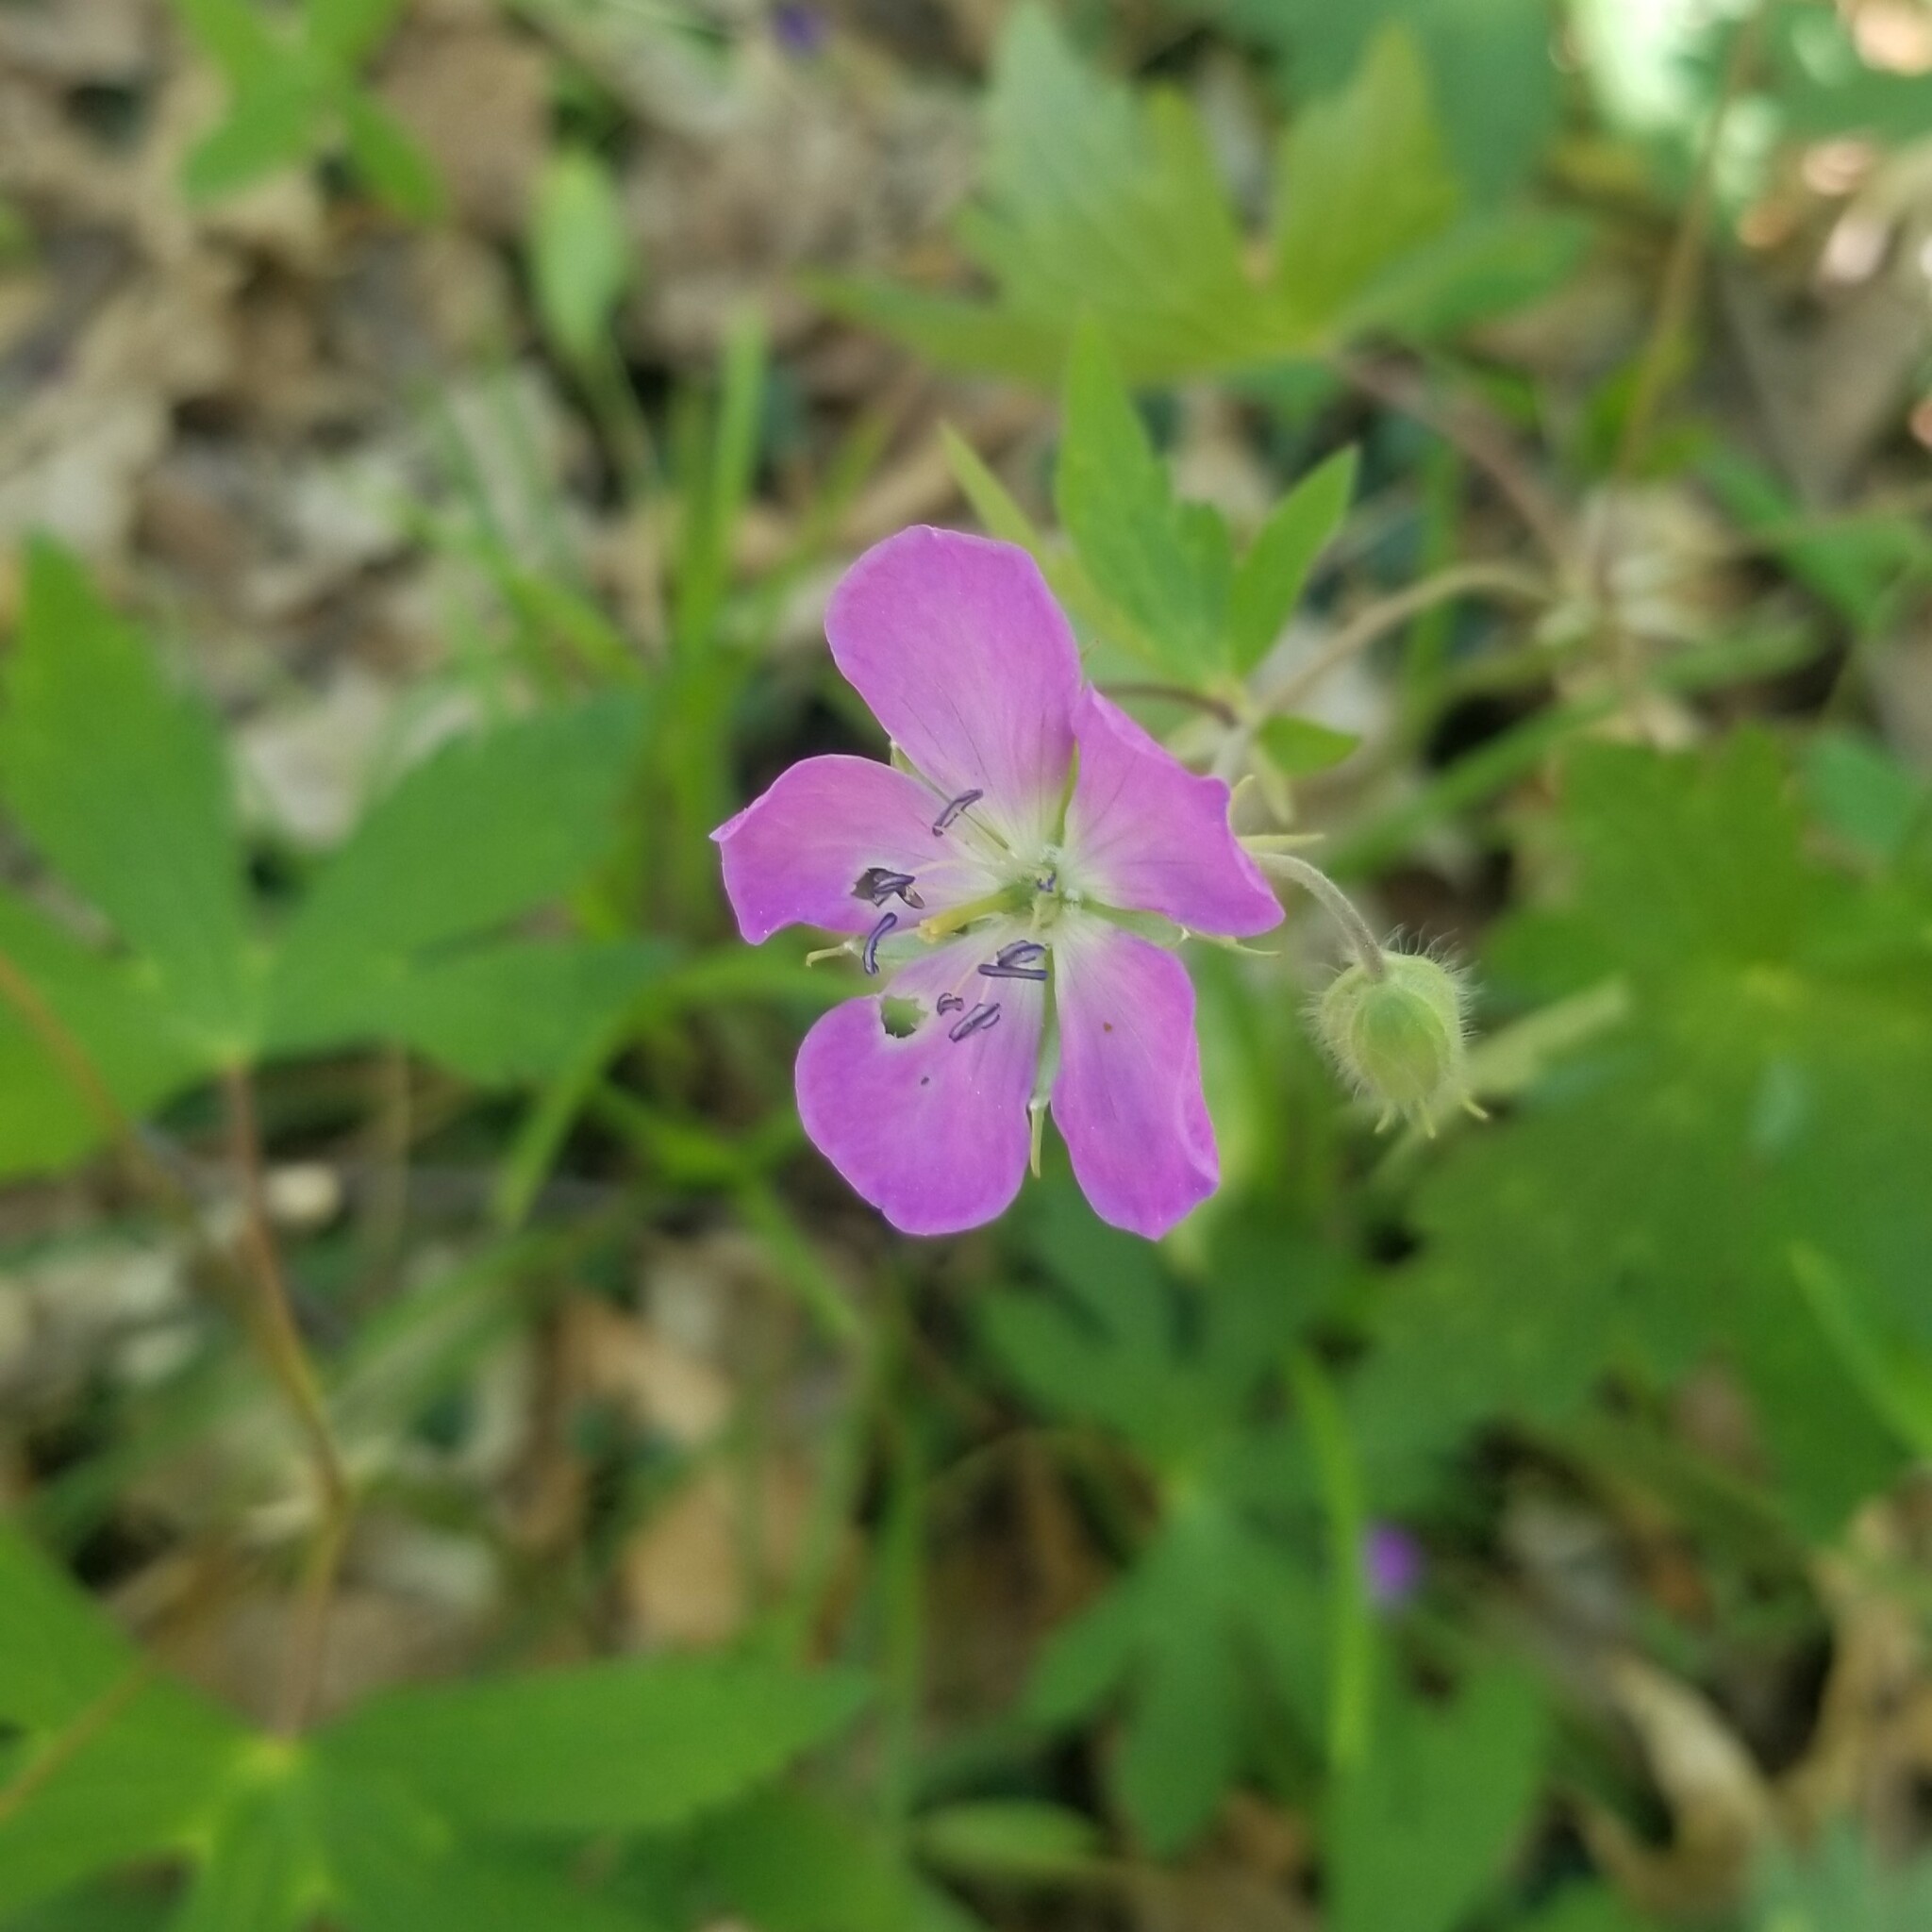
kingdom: Plantae
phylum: Tracheophyta
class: Magnoliopsida
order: Geraniales
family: Geraniaceae
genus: Geranium
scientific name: Geranium maculatum
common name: Spotted geranium
